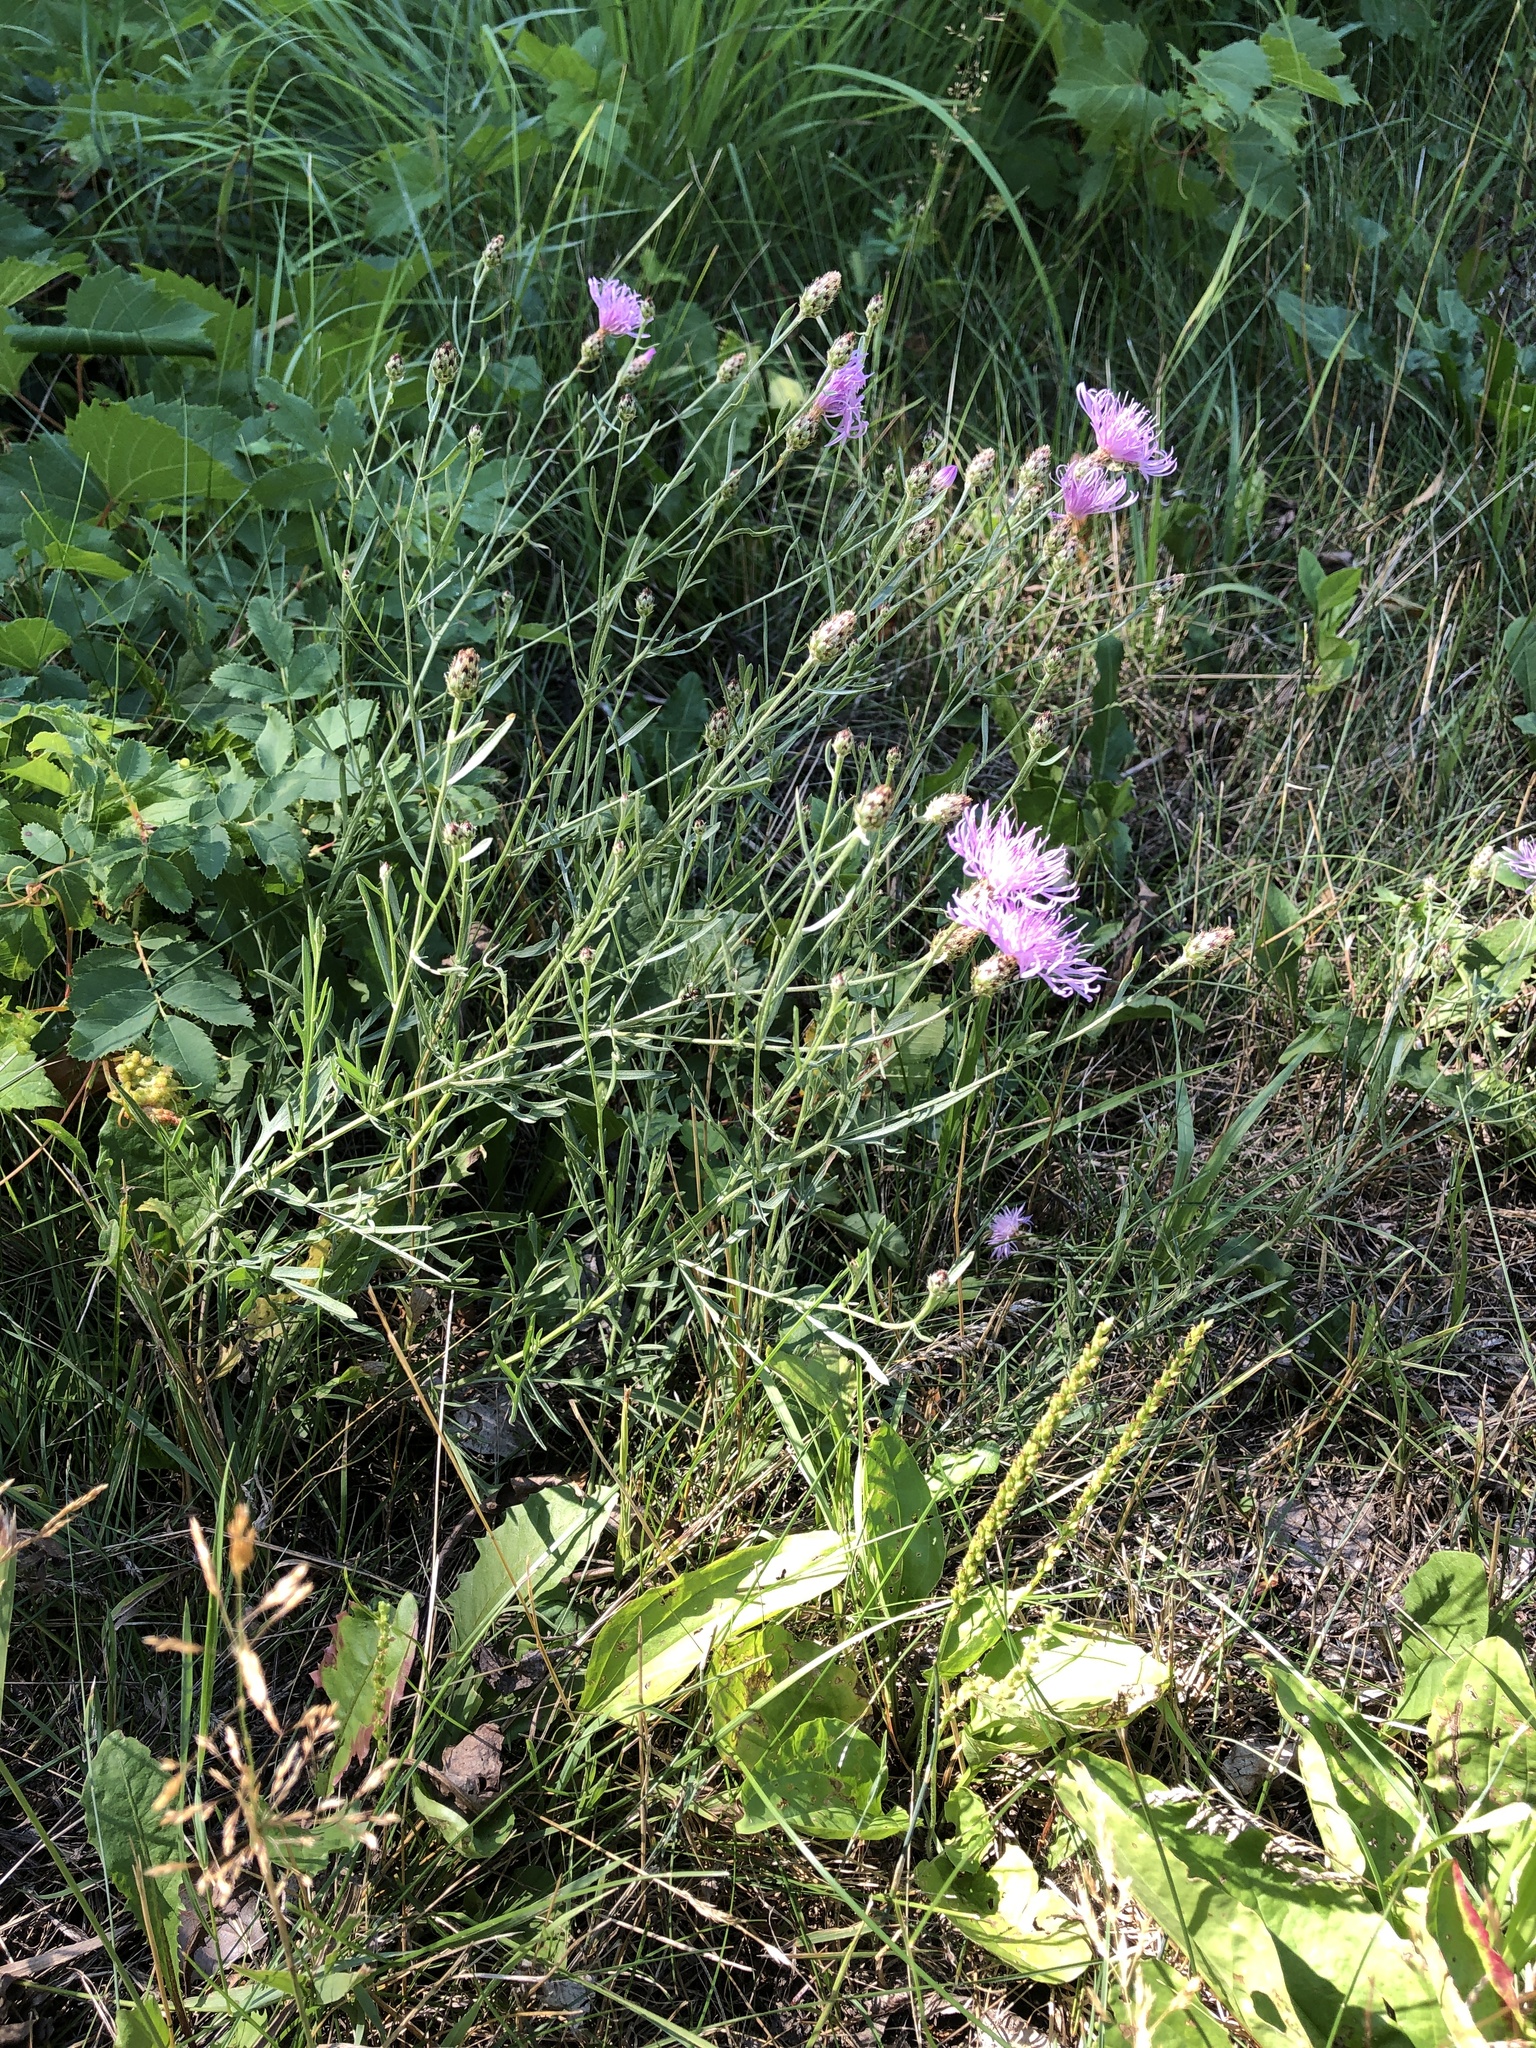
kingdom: Plantae
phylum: Tracheophyta
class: Magnoliopsida
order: Asterales
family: Asteraceae
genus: Centaurea
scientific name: Centaurea stoebe
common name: Spotted knapweed
